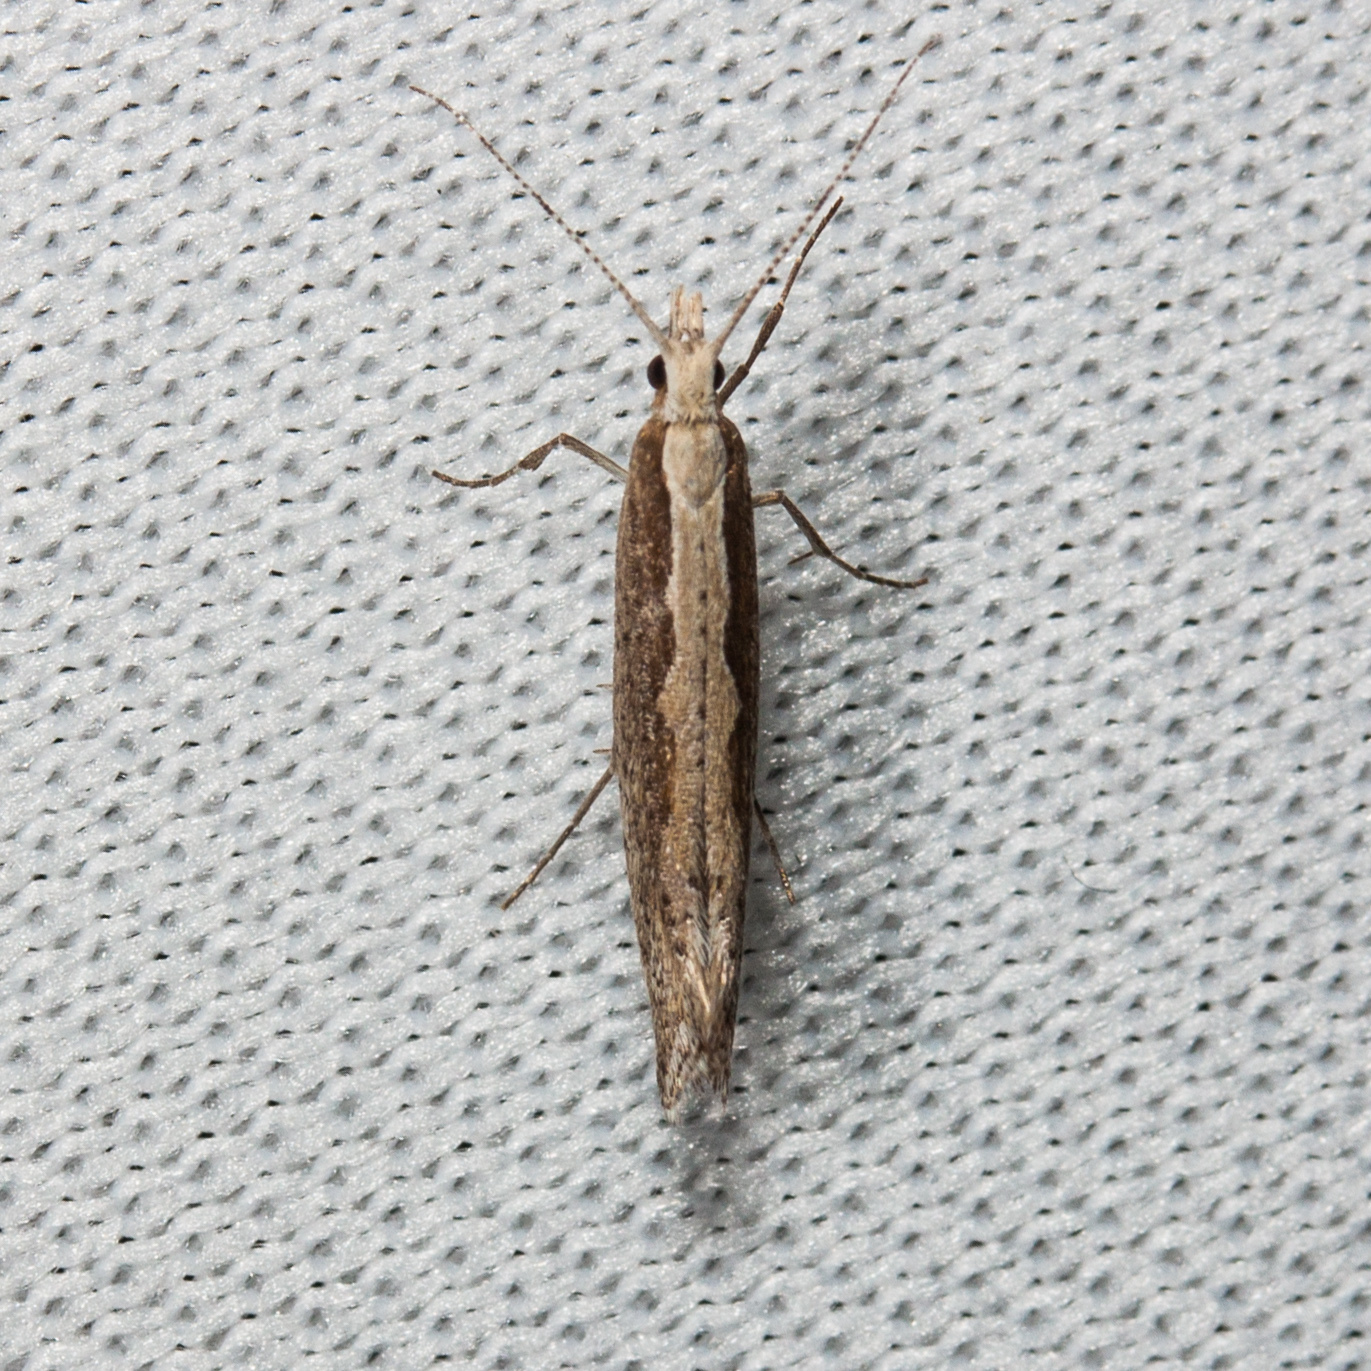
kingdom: Animalia
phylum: Arthropoda
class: Insecta
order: Lepidoptera
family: Plutellidae
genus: Plutella
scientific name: Plutella xylostella
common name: Diamond-back moth
